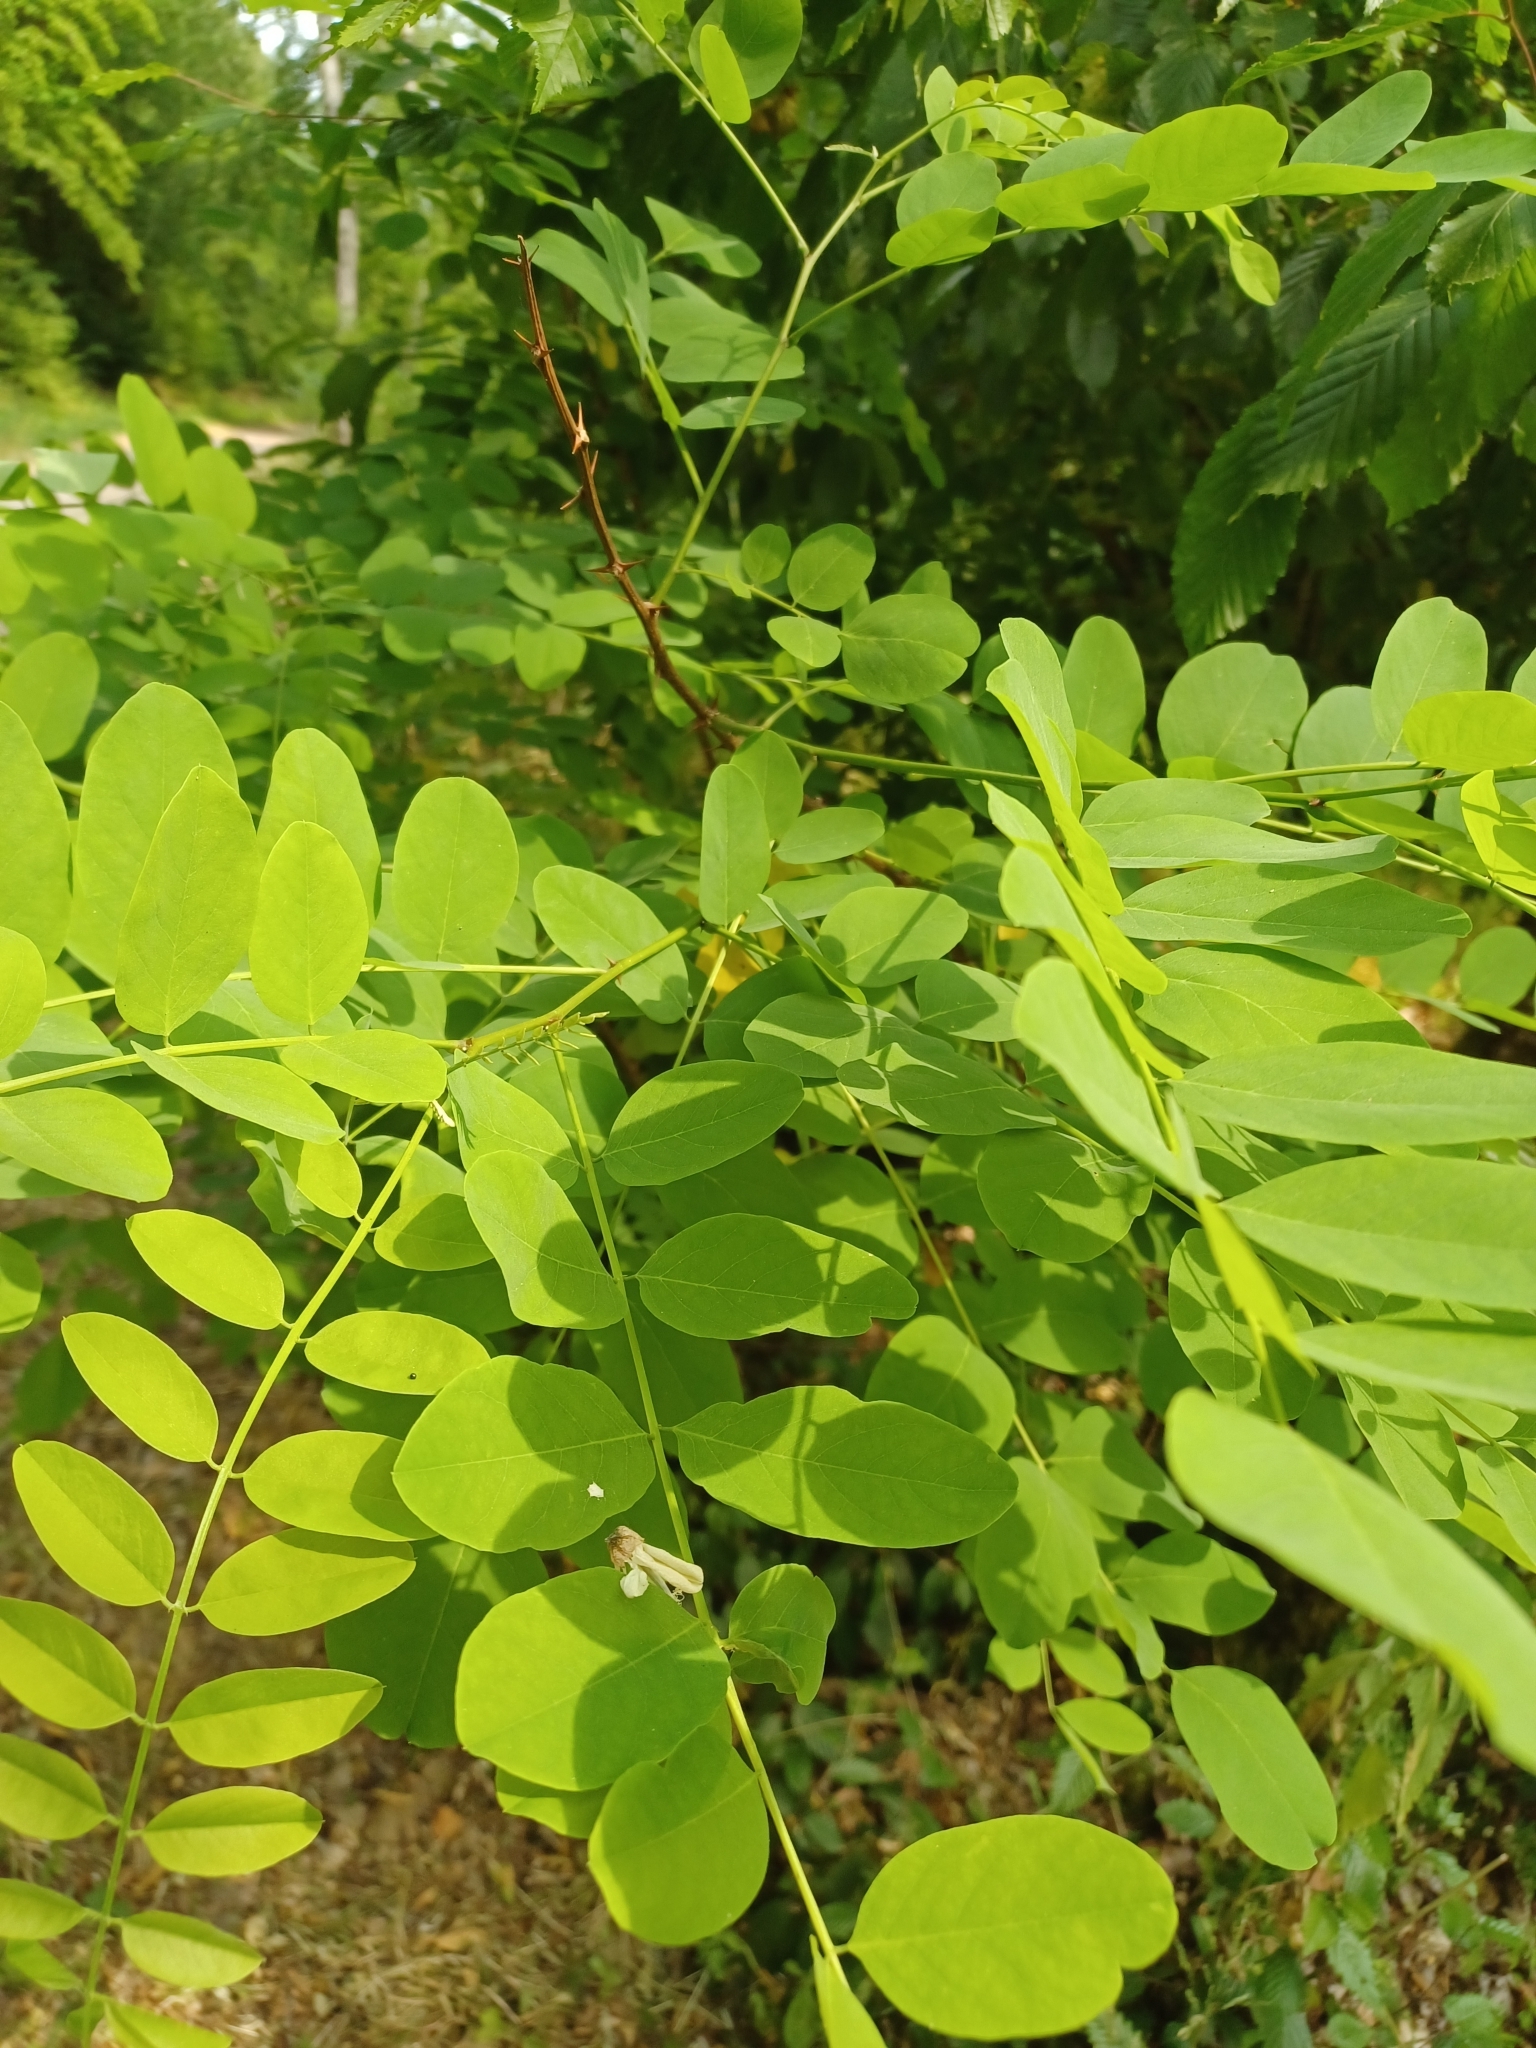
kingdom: Plantae
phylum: Tracheophyta
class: Magnoliopsida
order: Fabales
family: Fabaceae
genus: Robinia
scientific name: Robinia pseudoacacia
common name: Black locust
